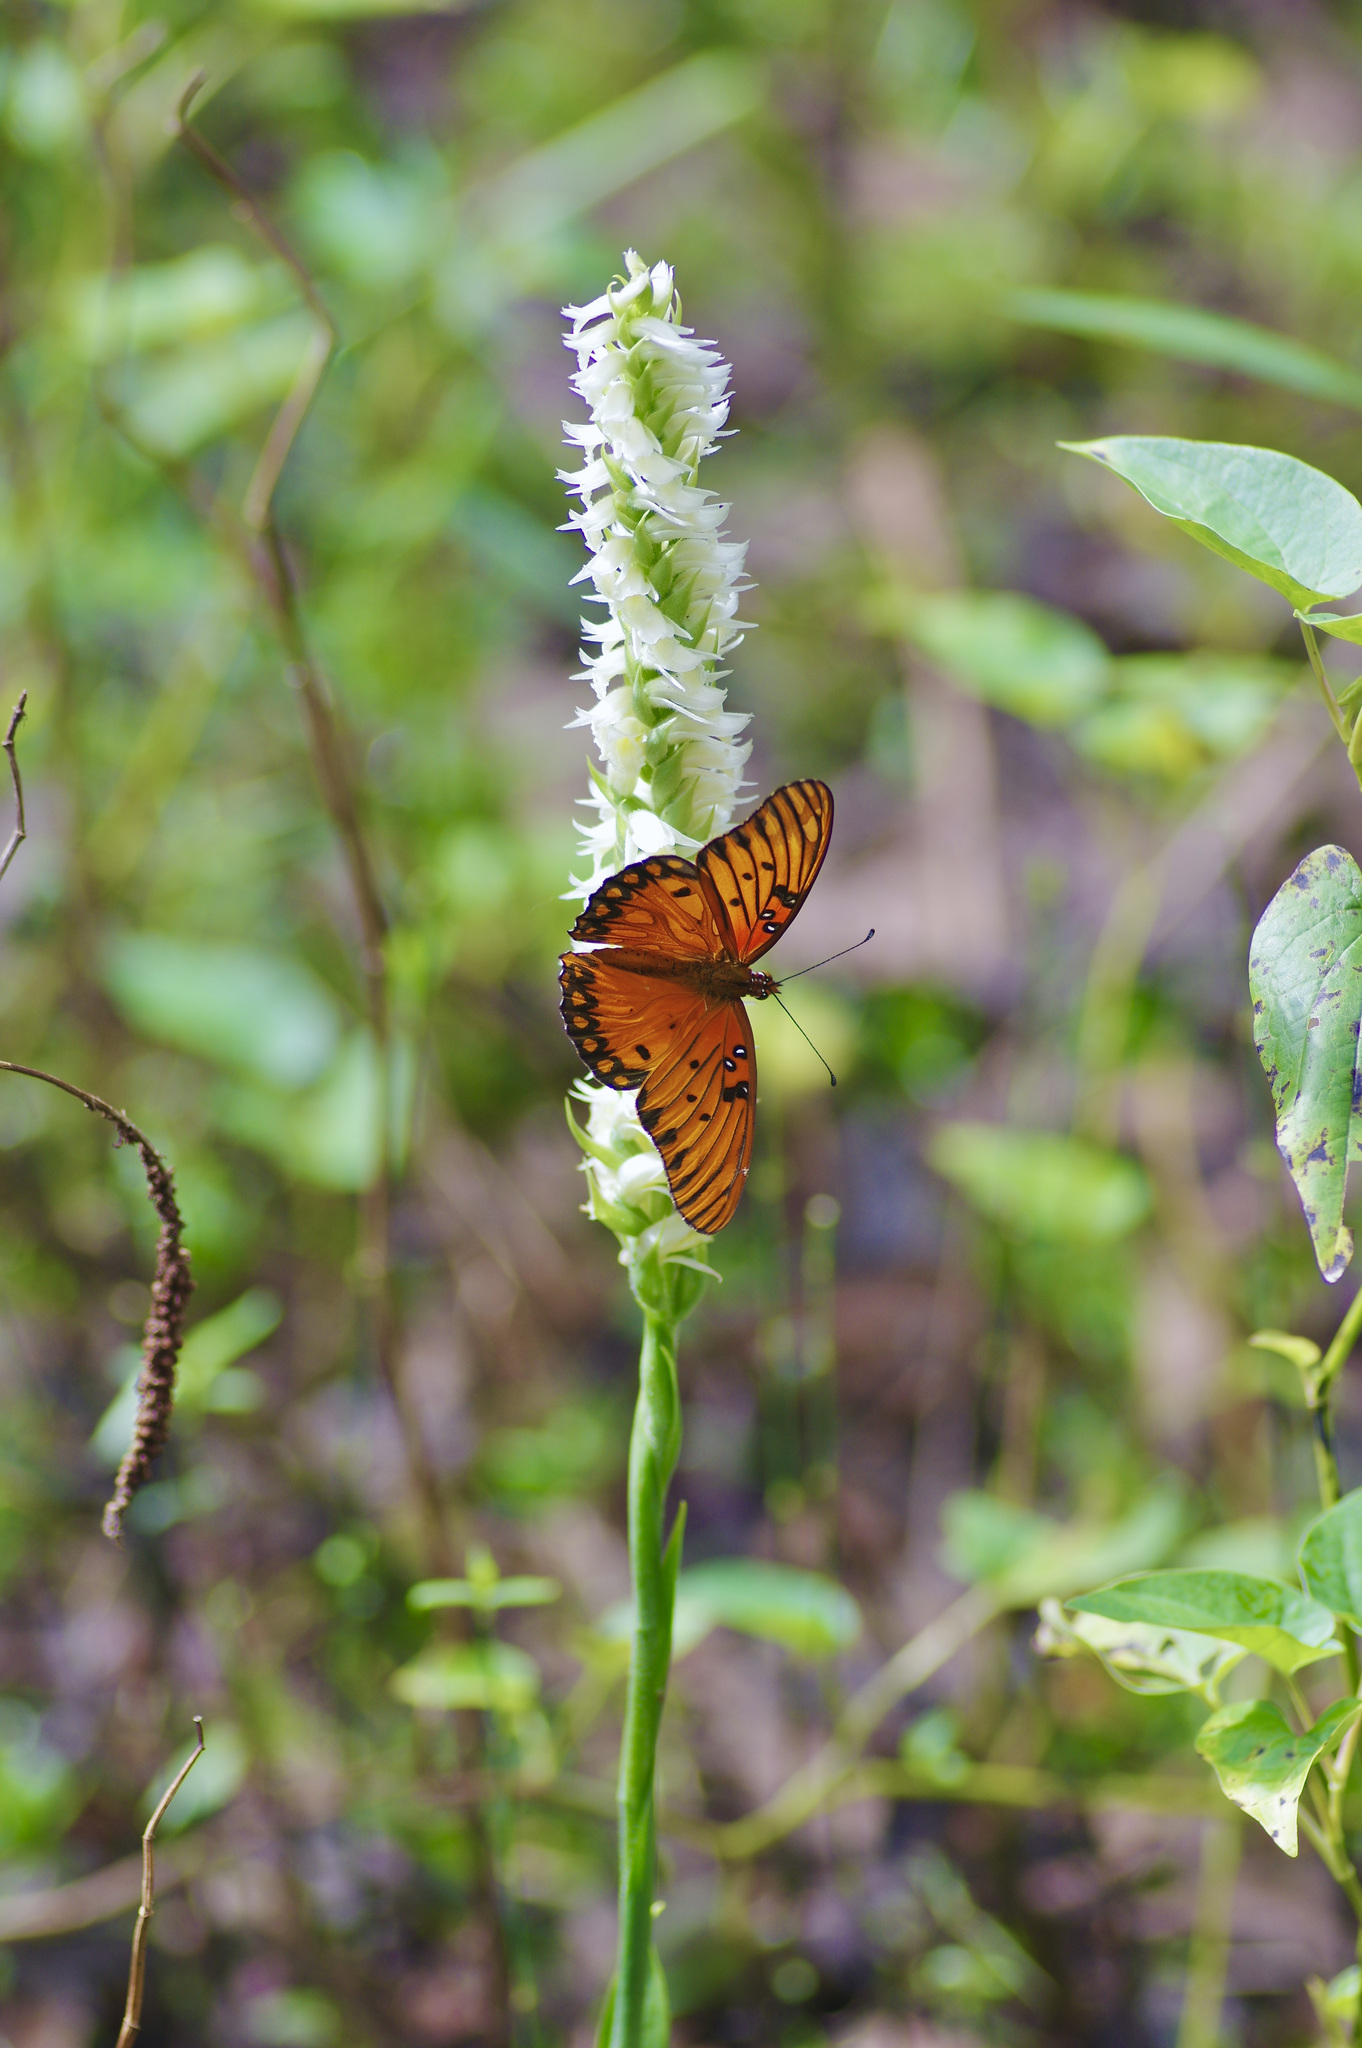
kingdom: Animalia
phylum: Arthropoda
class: Insecta
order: Lepidoptera
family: Nymphalidae
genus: Dione
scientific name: Dione vanillae
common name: Gulf fritillary
